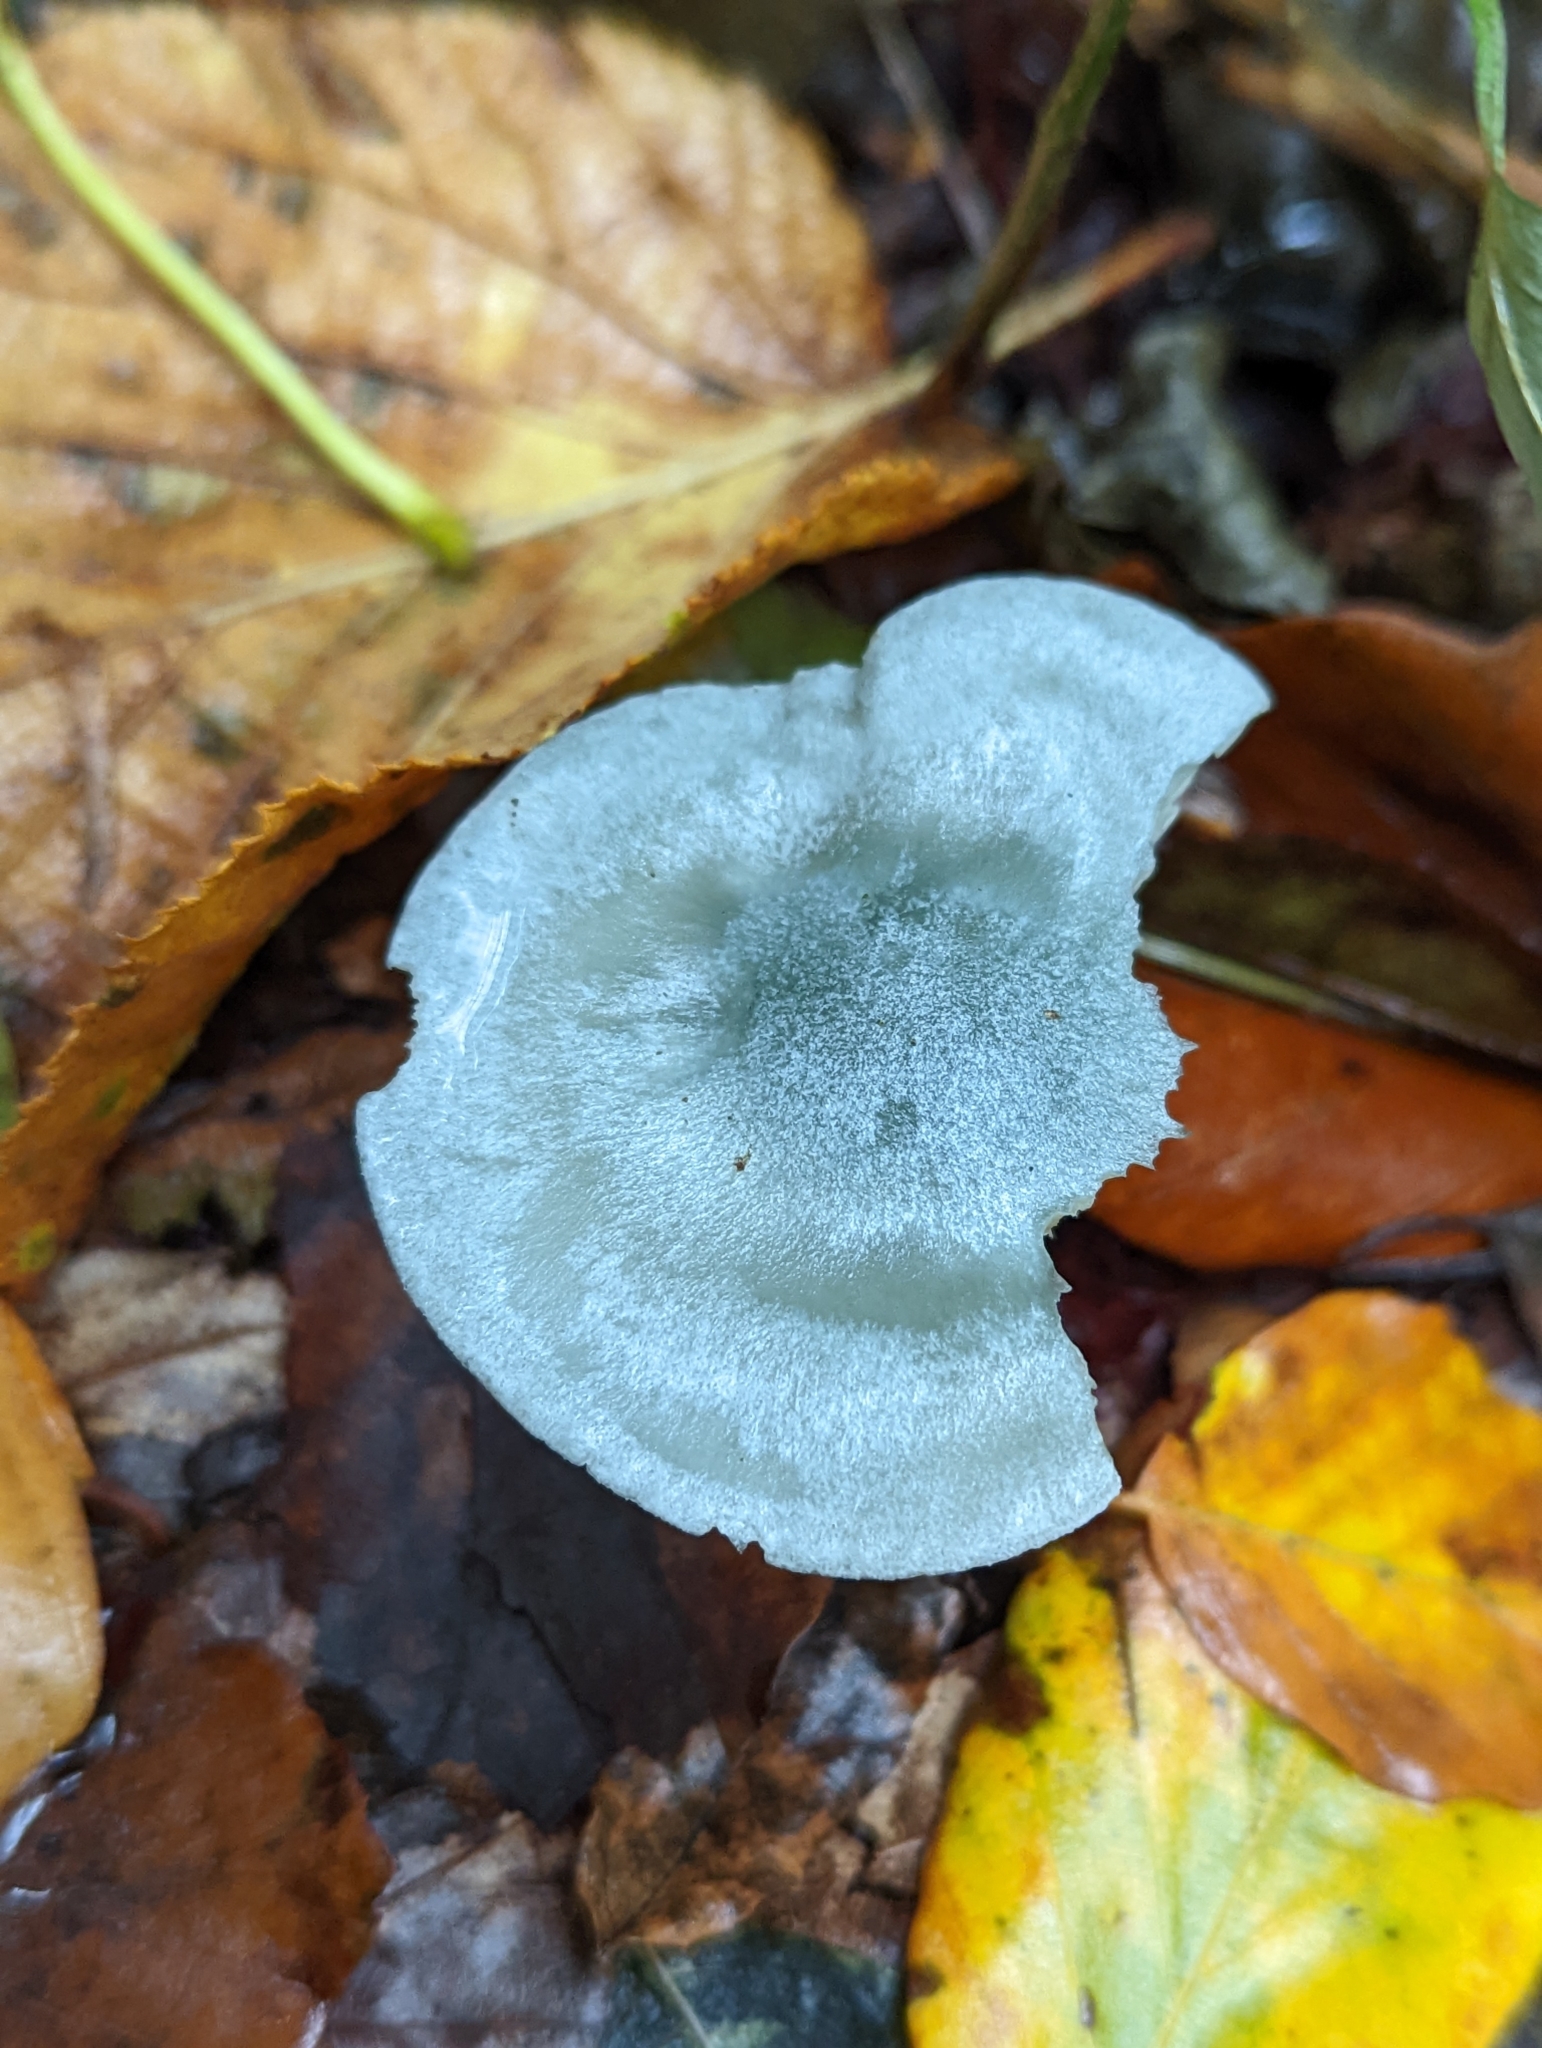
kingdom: Fungi
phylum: Basidiomycota
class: Agaricomycetes
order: Agaricales
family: Tricholomataceae
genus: Collybia
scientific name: Collybia
